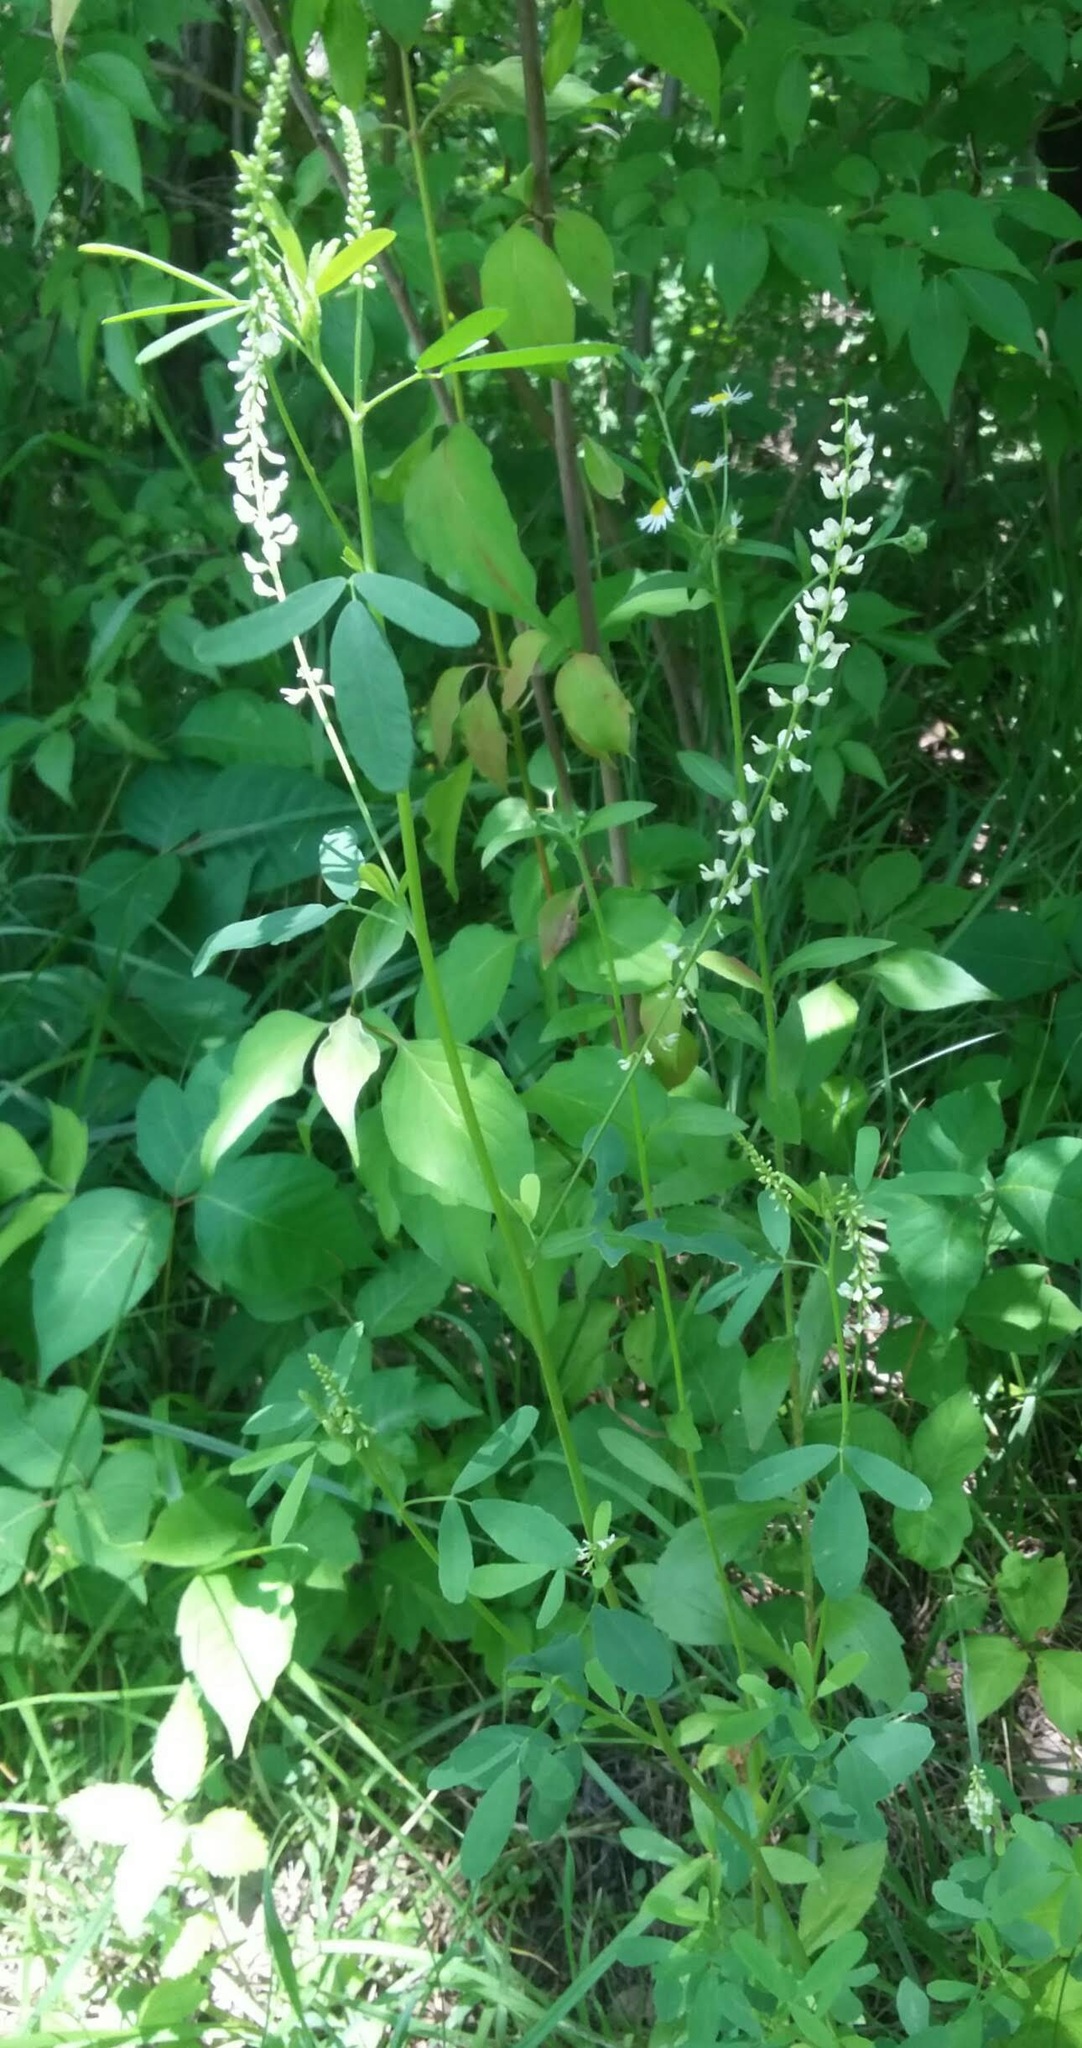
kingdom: Plantae
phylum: Tracheophyta
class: Magnoliopsida
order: Fabales
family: Fabaceae
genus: Melilotus
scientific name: Melilotus albus
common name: White melilot
